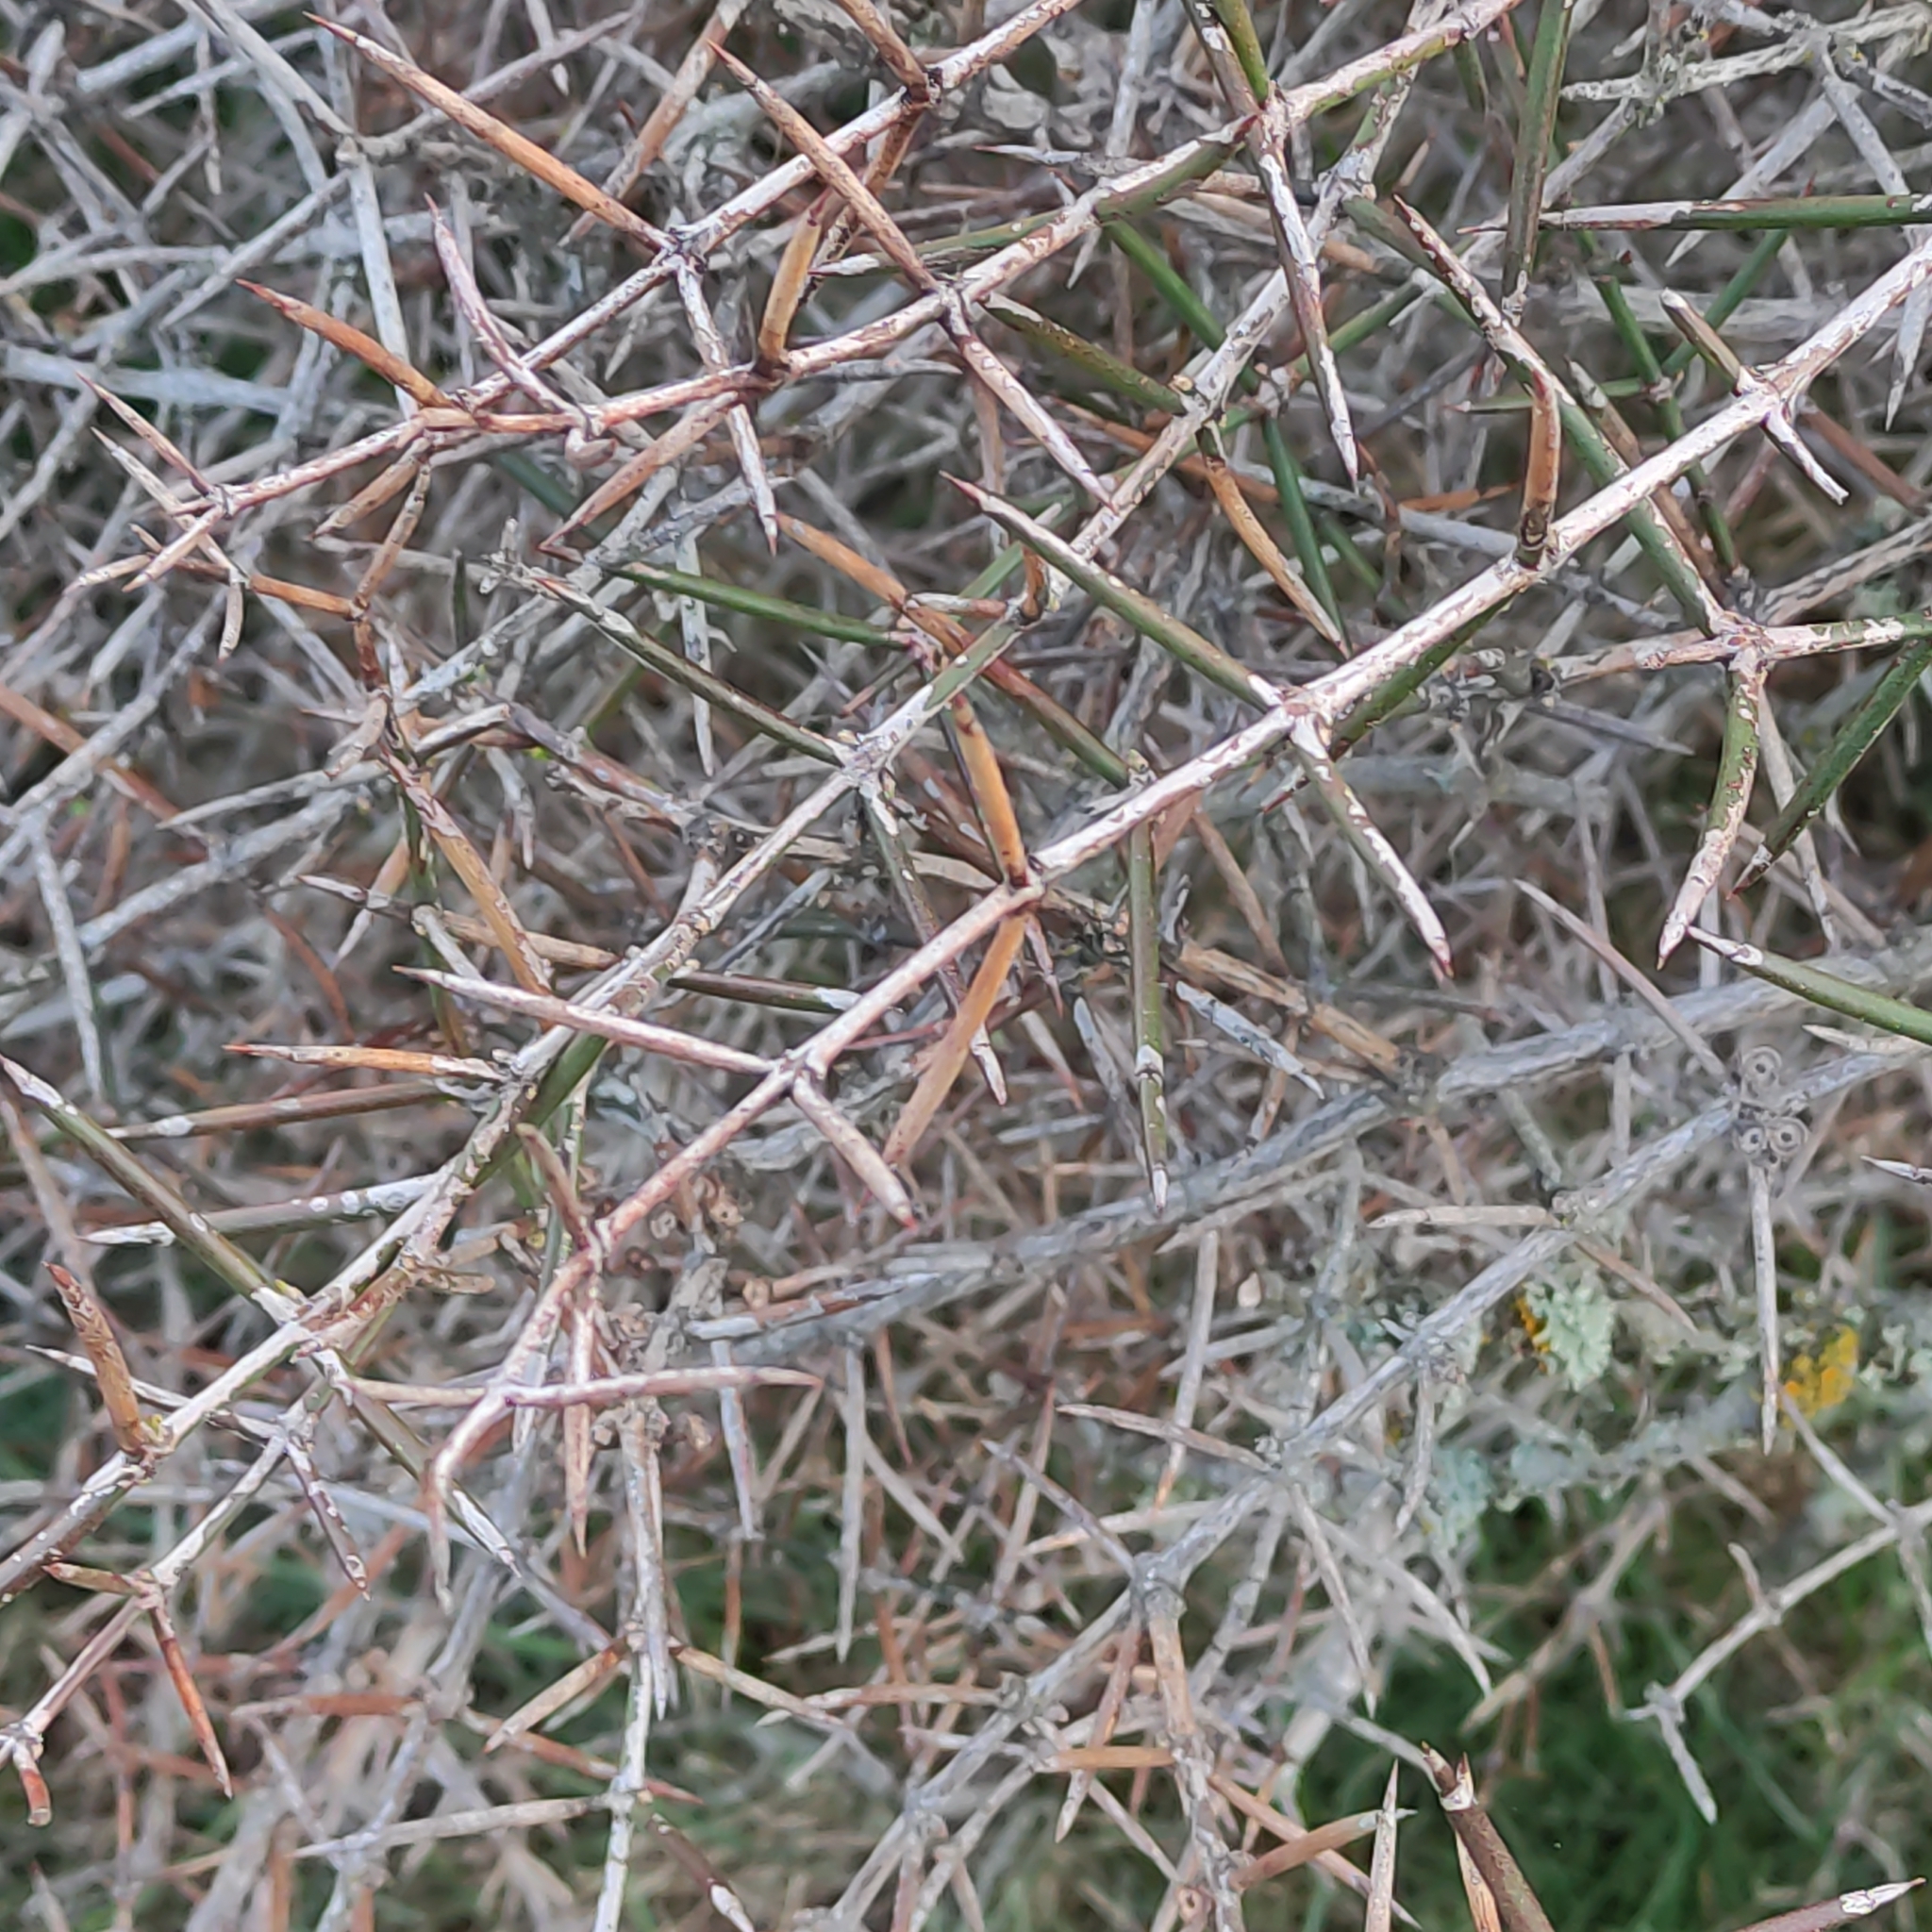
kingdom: Plantae
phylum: Tracheophyta
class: Magnoliopsida
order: Rosales
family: Rhamnaceae
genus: Discaria
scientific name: Discaria toumatou
